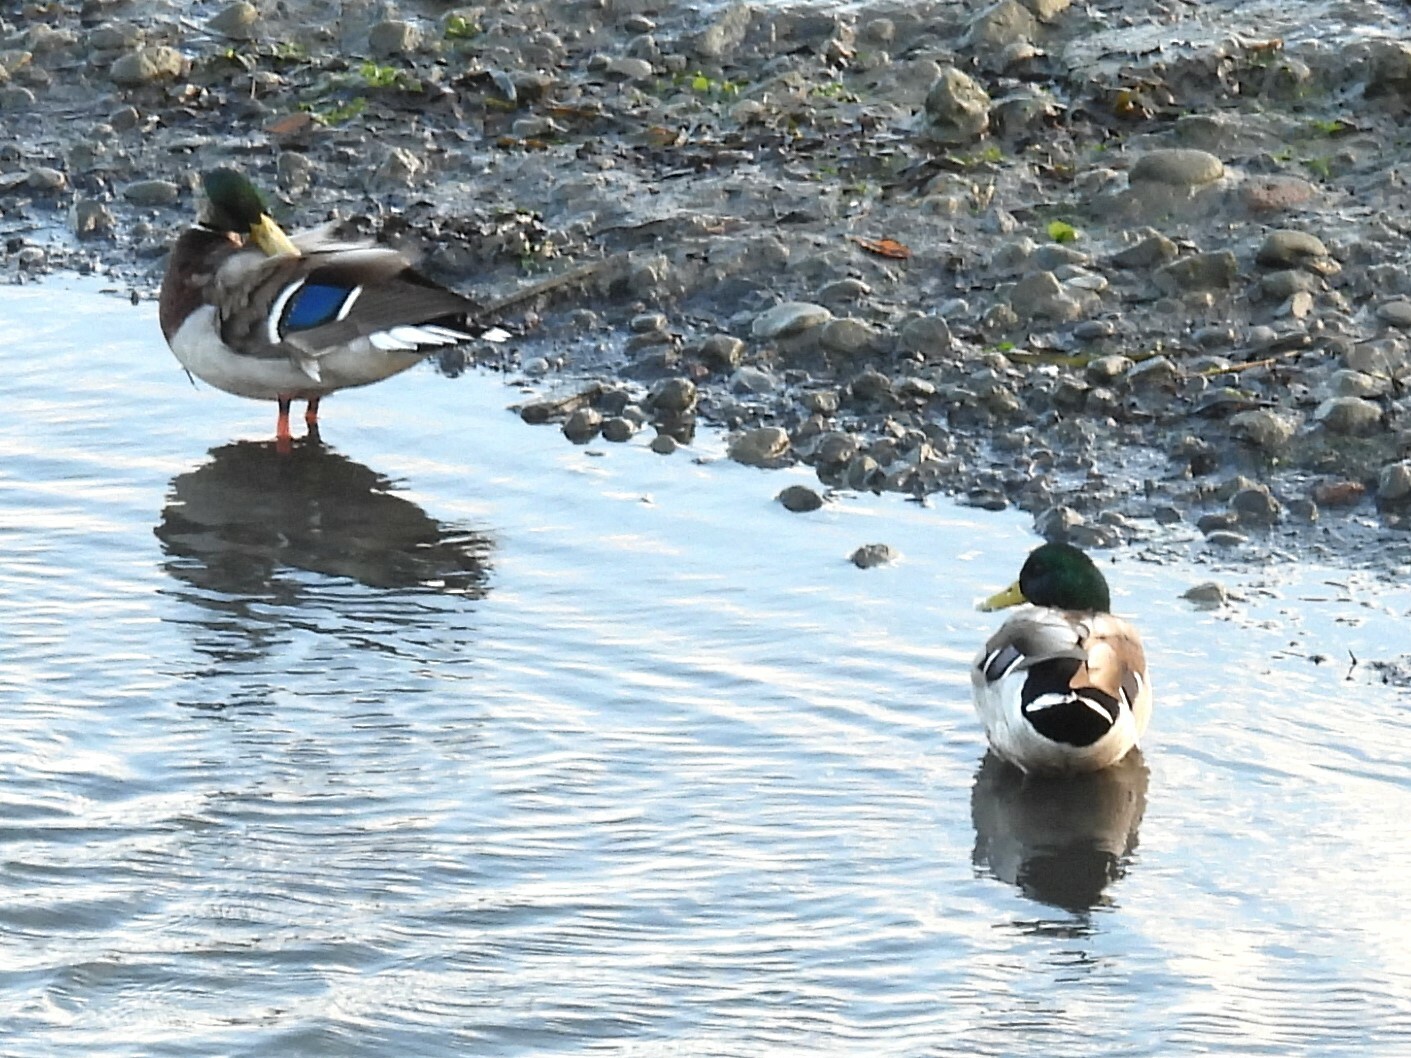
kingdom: Animalia
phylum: Chordata
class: Aves
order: Anseriformes
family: Anatidae
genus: Anas
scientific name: Anas platyrhynchos
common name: Mallard
